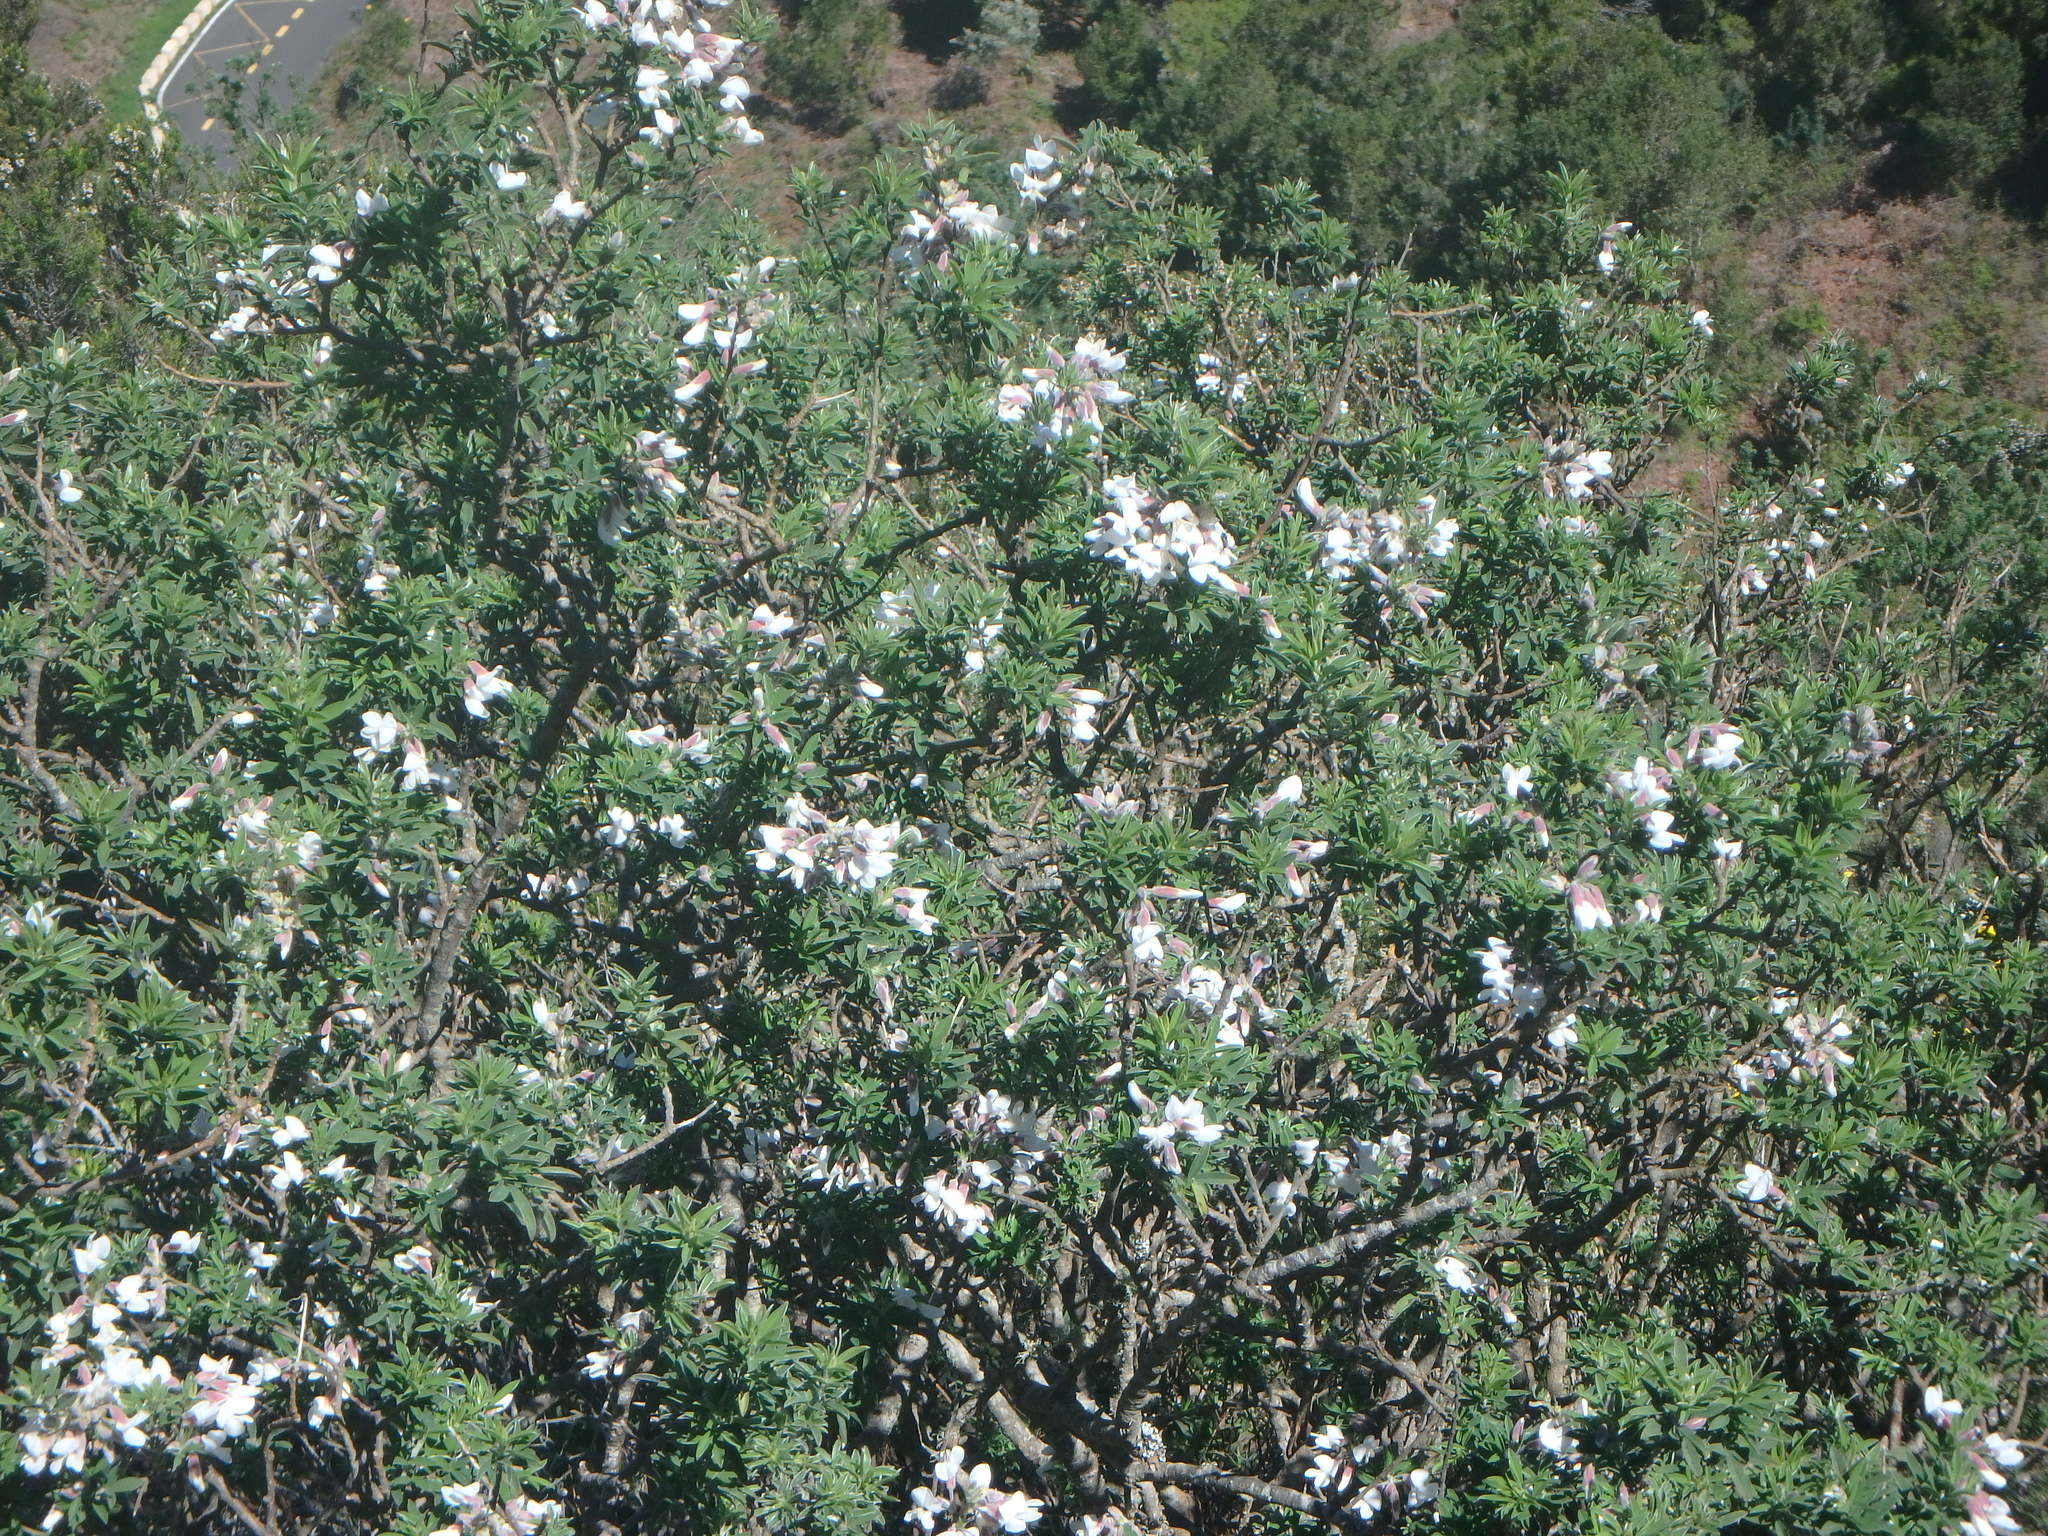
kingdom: Plantae
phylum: Tracheophyta
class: Magnoliopsida
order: Fabales
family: Fabaceae
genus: Chamaecytisus
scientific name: Chamaecytisus prolifer
